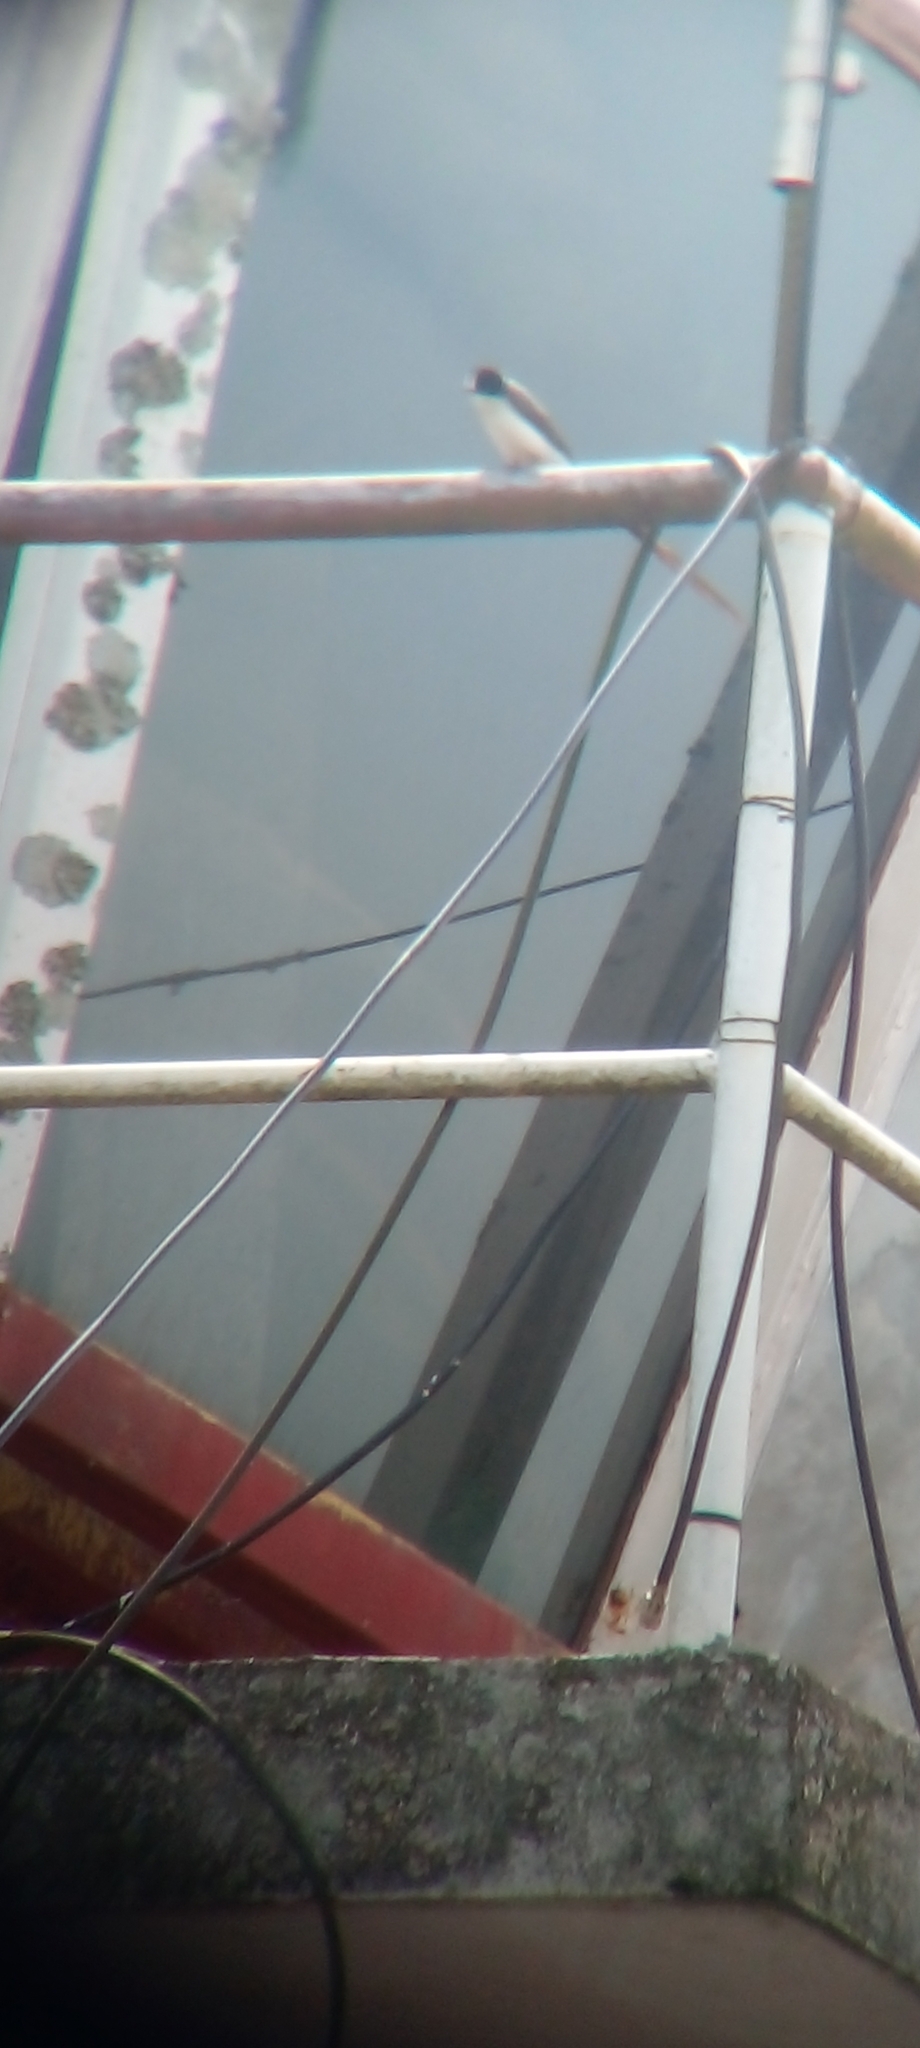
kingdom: Animalia
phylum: Chordata
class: Aves
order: Passeriformes
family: Tyrannidae
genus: Tyrannus
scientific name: Tyrannus savana
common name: Fork-tailed flycatcher
